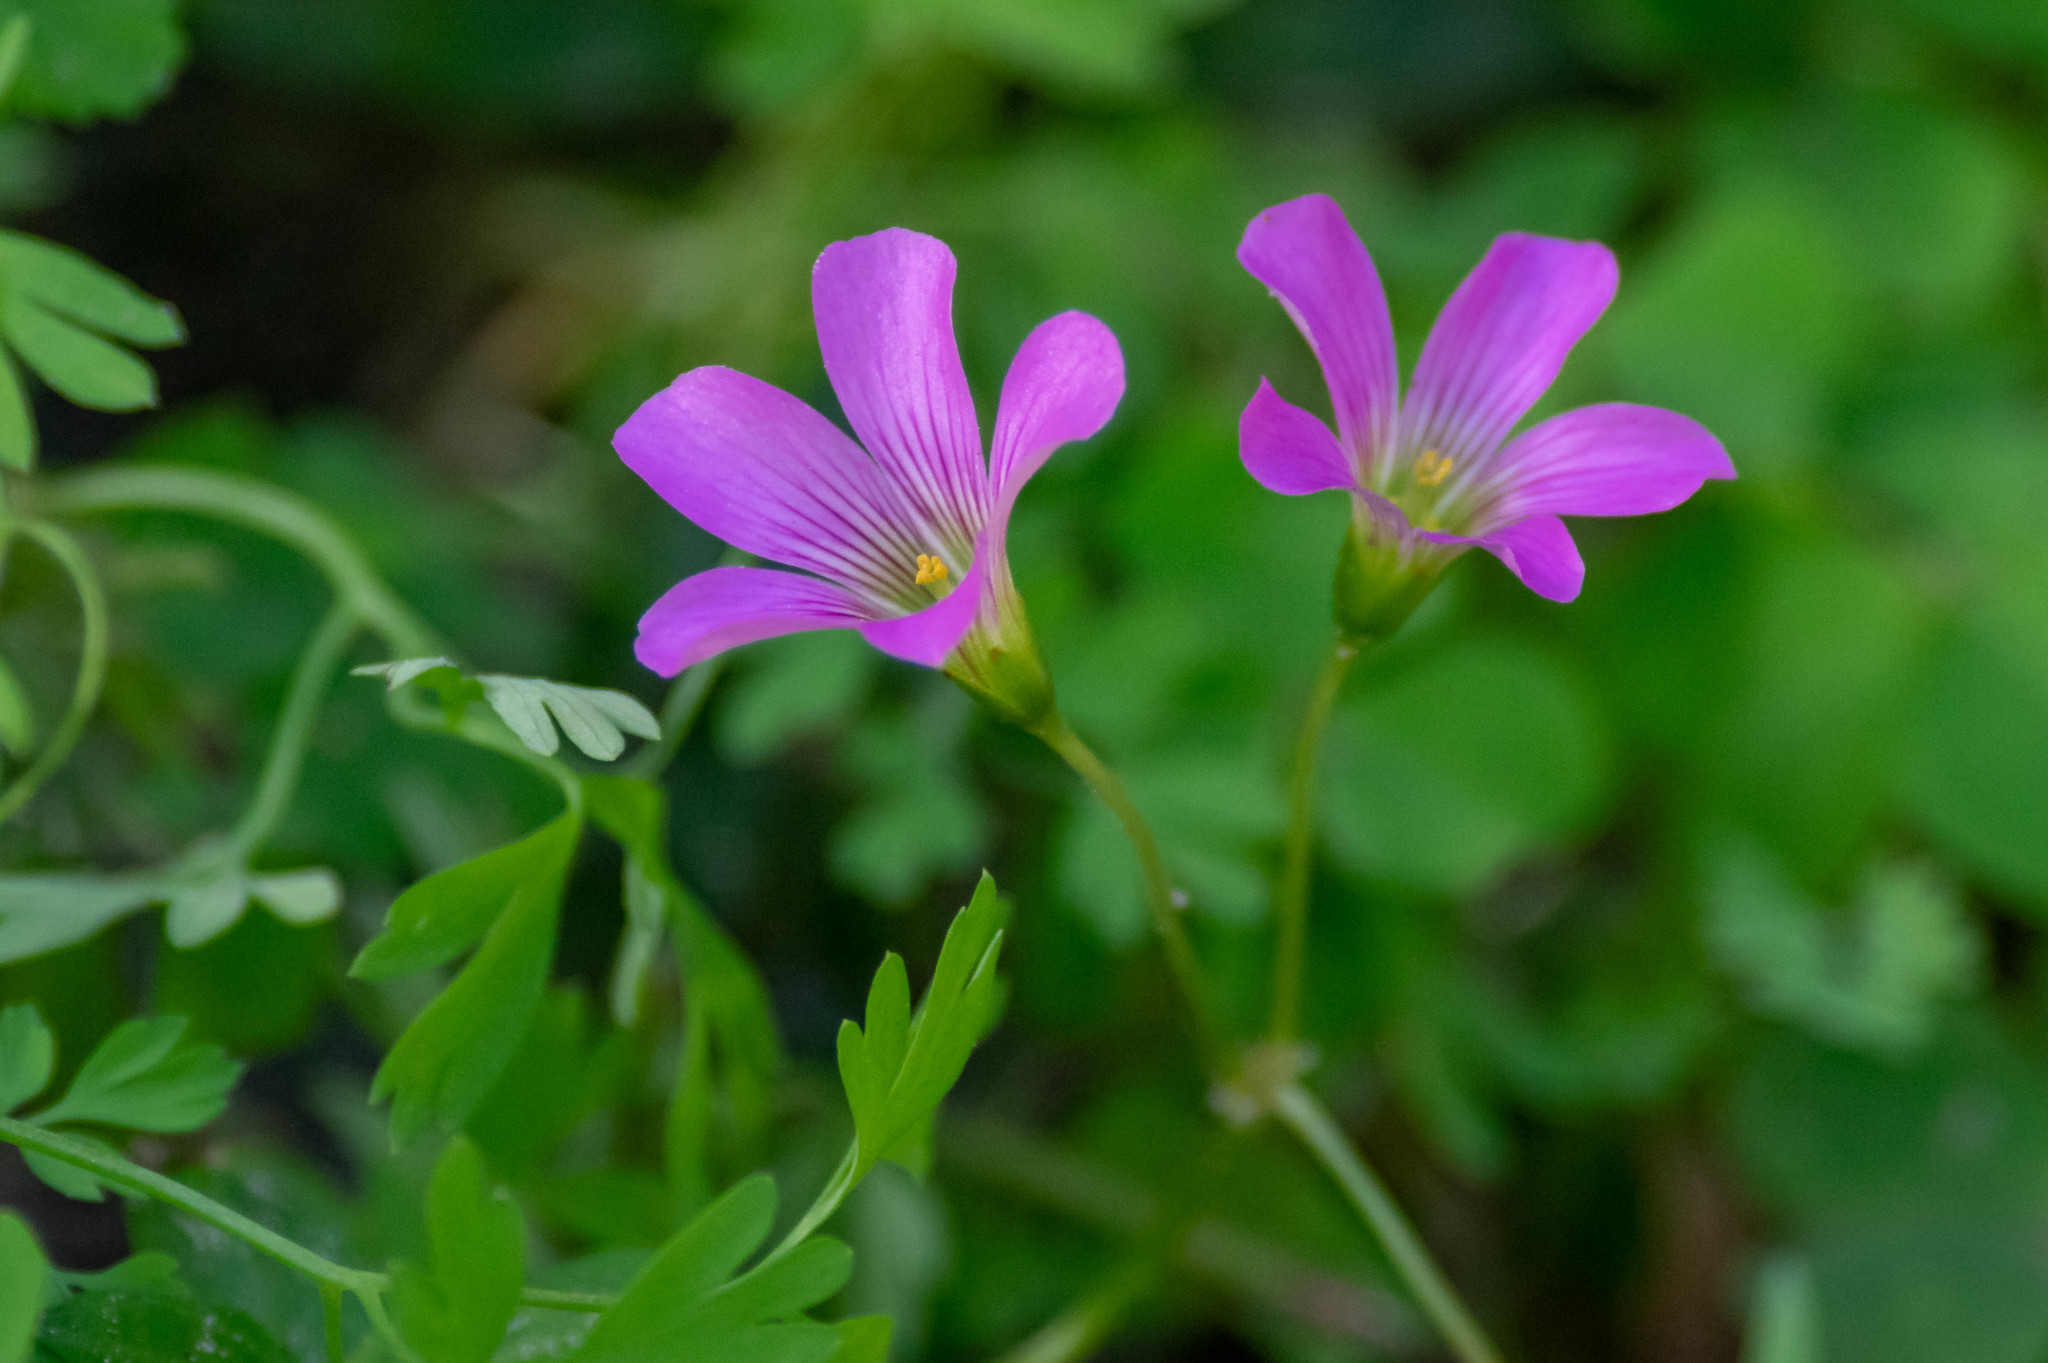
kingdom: Plantae
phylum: Tracheophyta
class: Magnoliopsida
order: Oxalidales
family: Oxalidaceae
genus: Oxalis
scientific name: Oxalis debilis
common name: Large-flowered pink-sorrel
